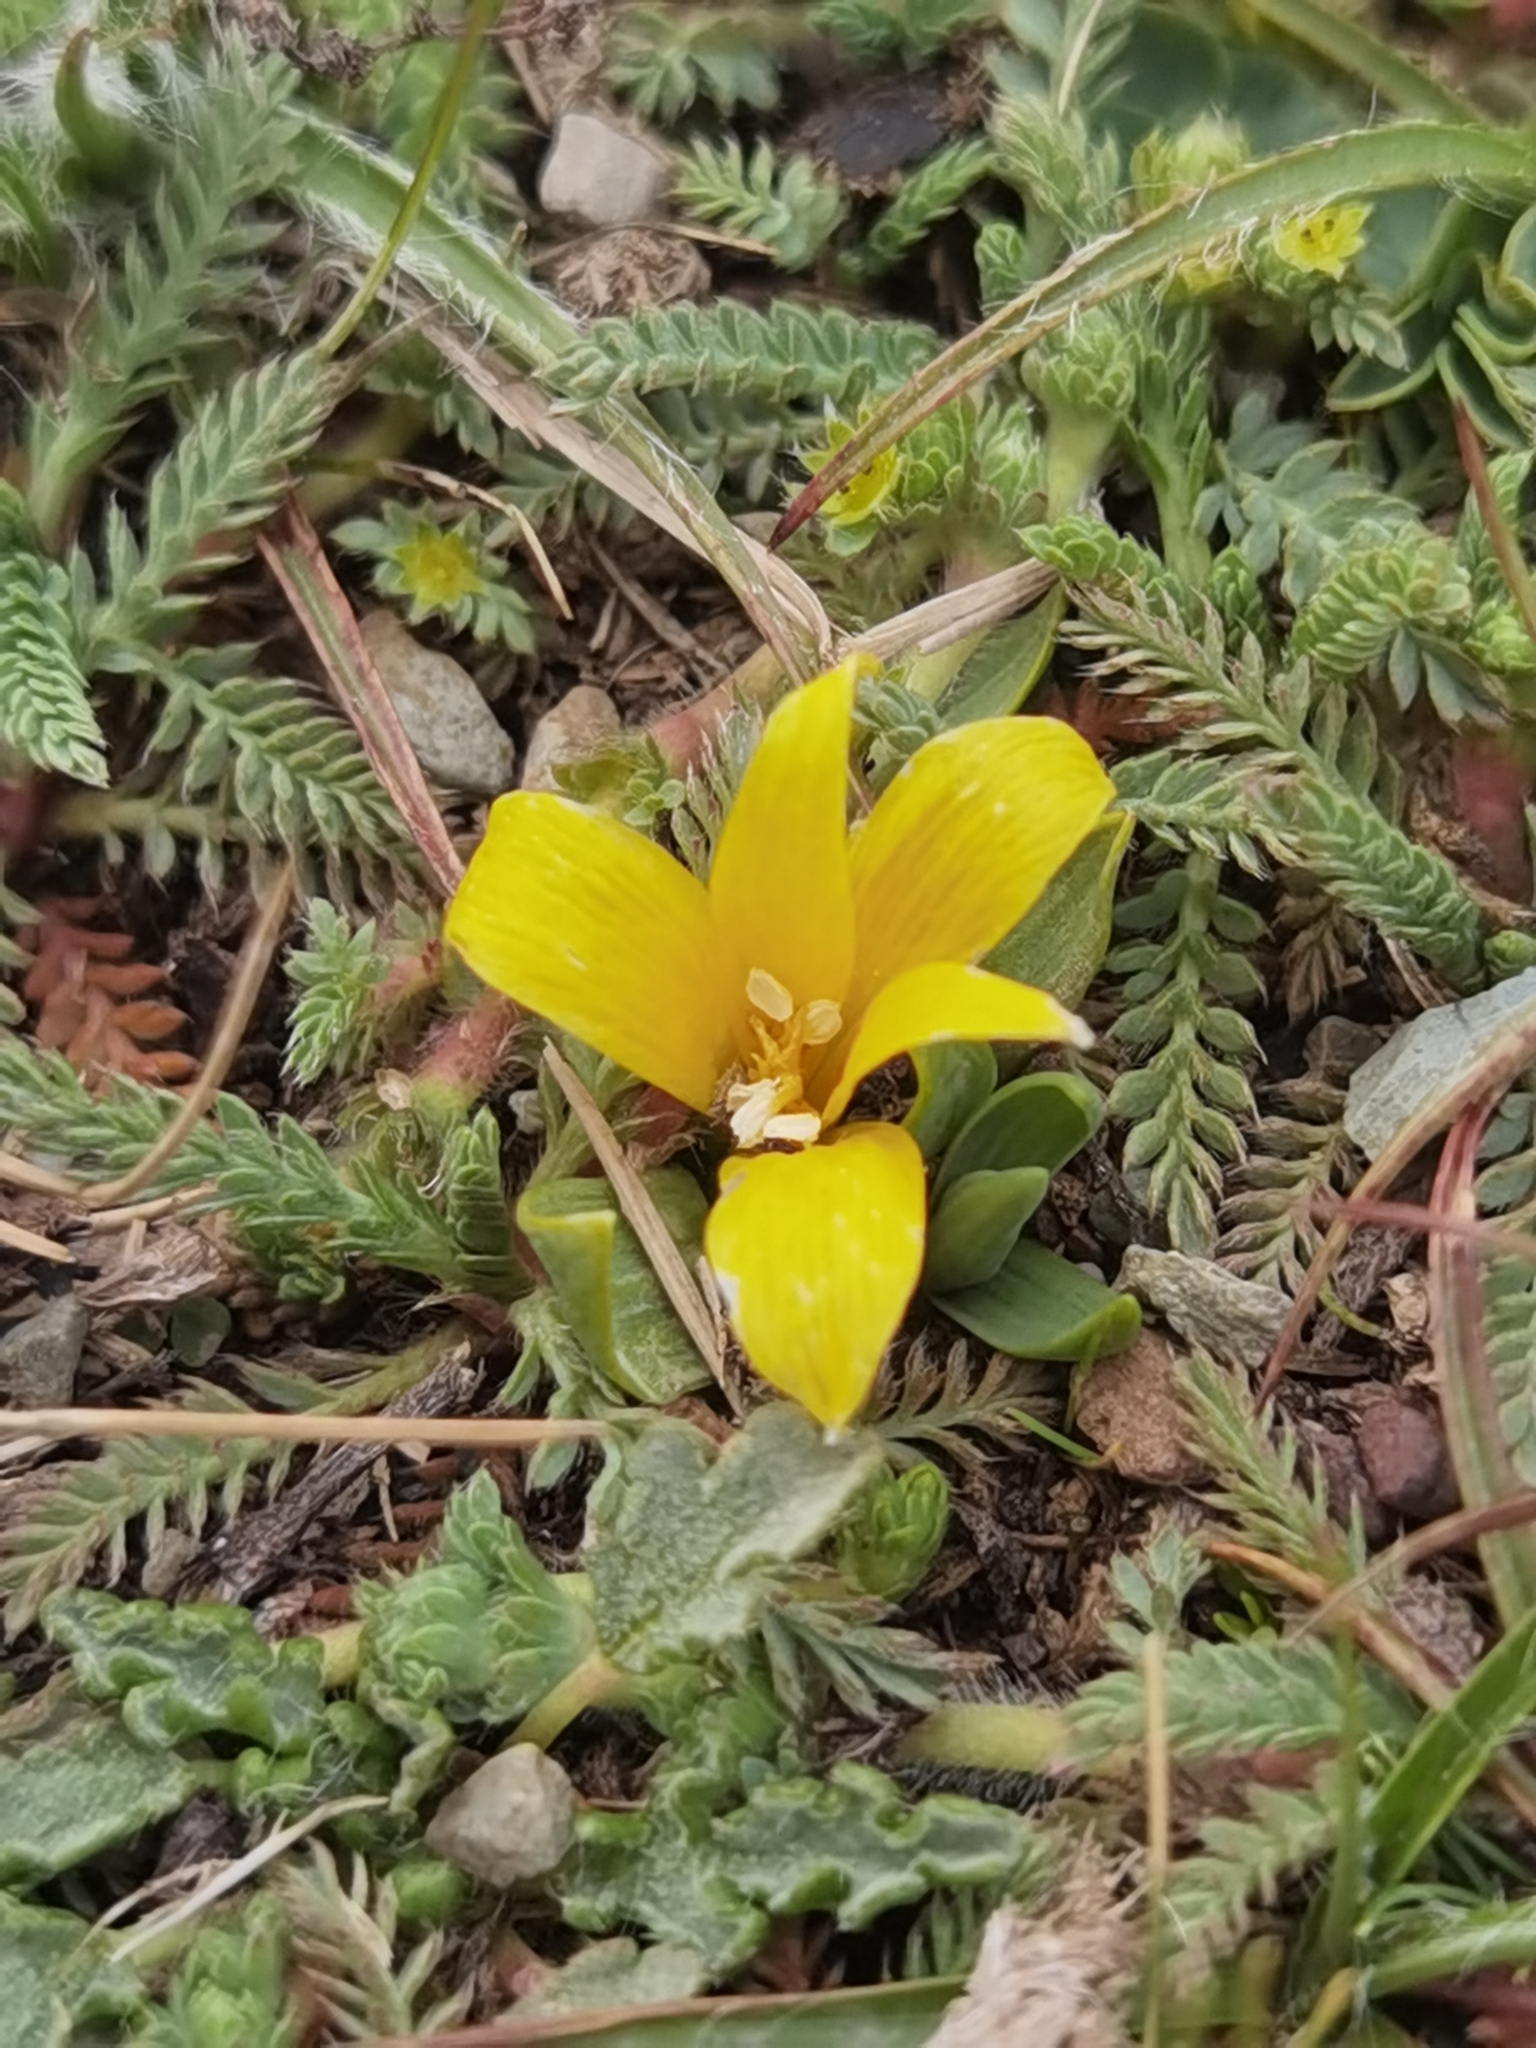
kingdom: Plantae
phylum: Tracheophyta
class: Liliopsida
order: Liliales
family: Alstroemeriaceae
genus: Alstroemeria
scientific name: Alstroemeria pygmaea
